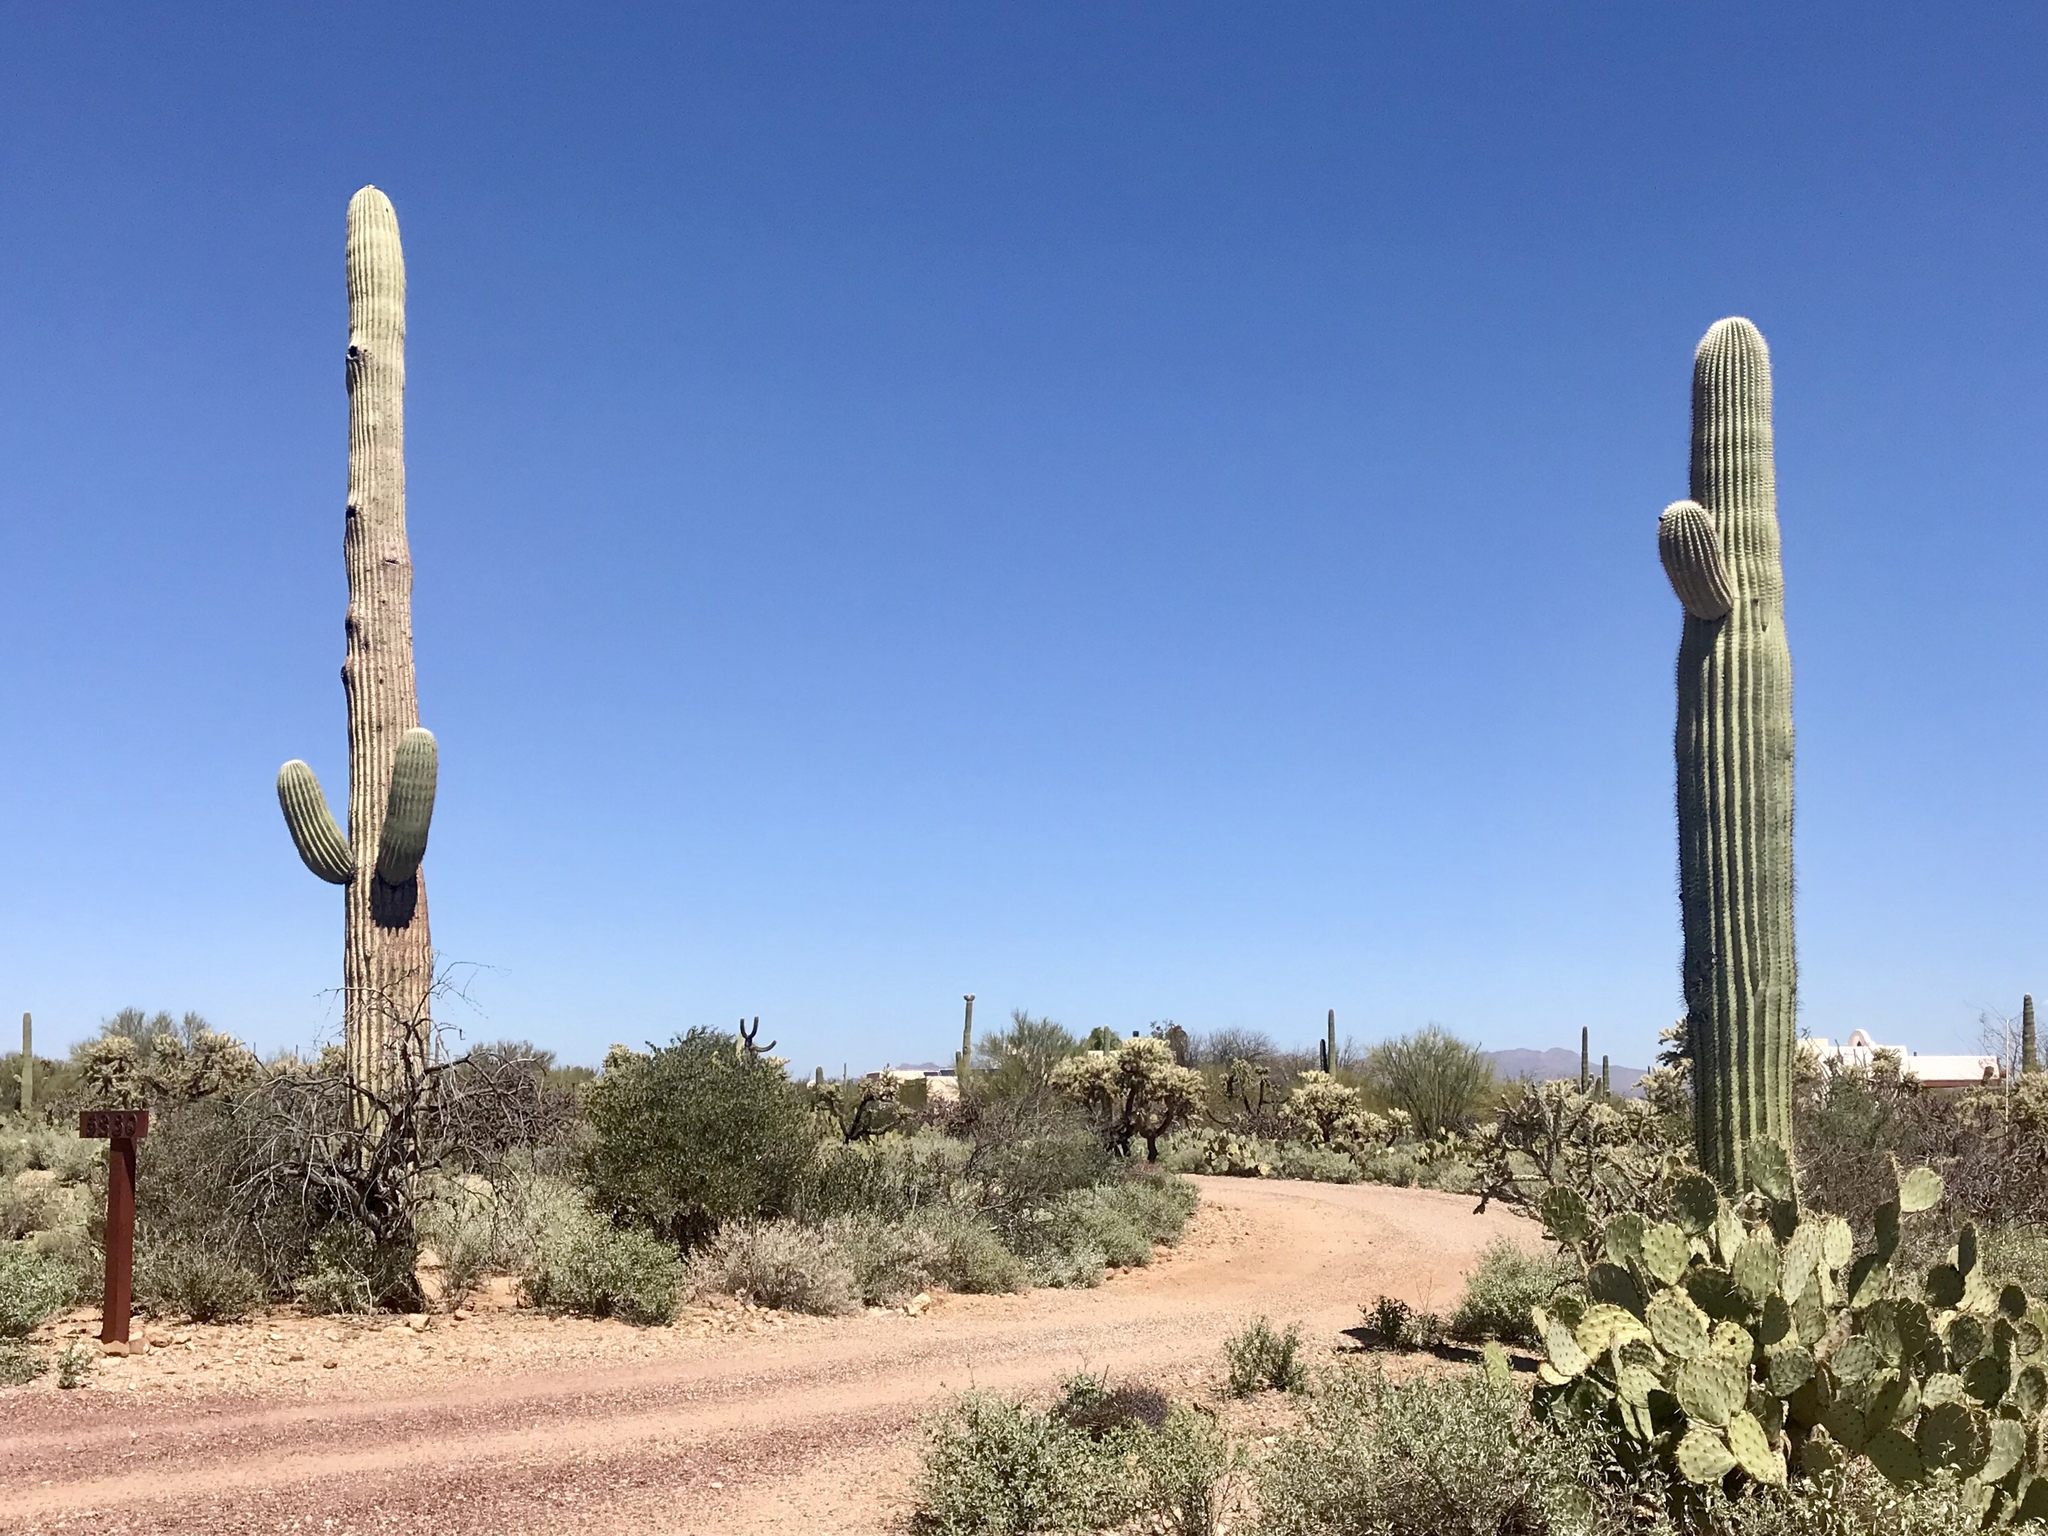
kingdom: Plantae
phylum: Tracheophyta
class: Magnoliopsida
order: Caryophyllales
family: Cactaceae
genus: Carnegiea
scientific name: Carnegiea gigantea
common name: Saguaro
